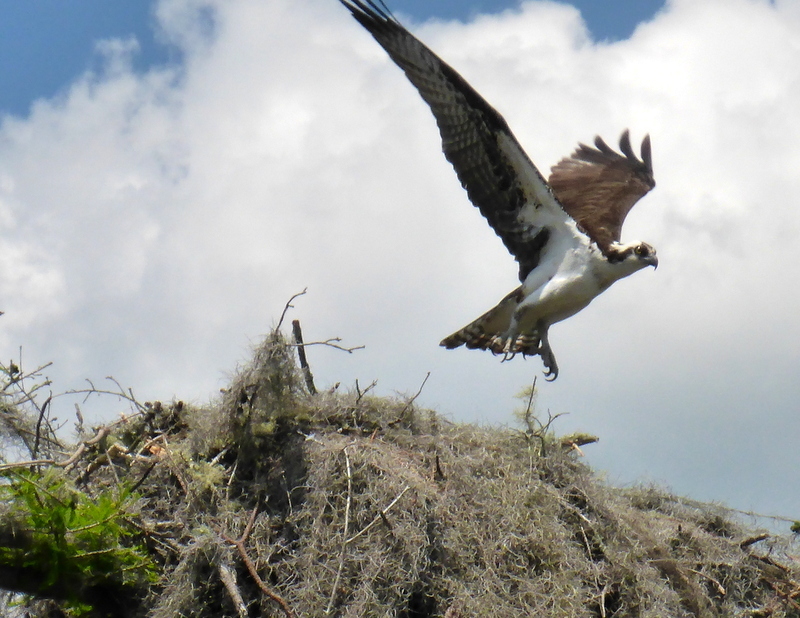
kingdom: Animalia
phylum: Chordata
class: Aves
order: Accipitriformes
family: Pandionidae
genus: Pandion
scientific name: Pandion haliaetus
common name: Osprey
